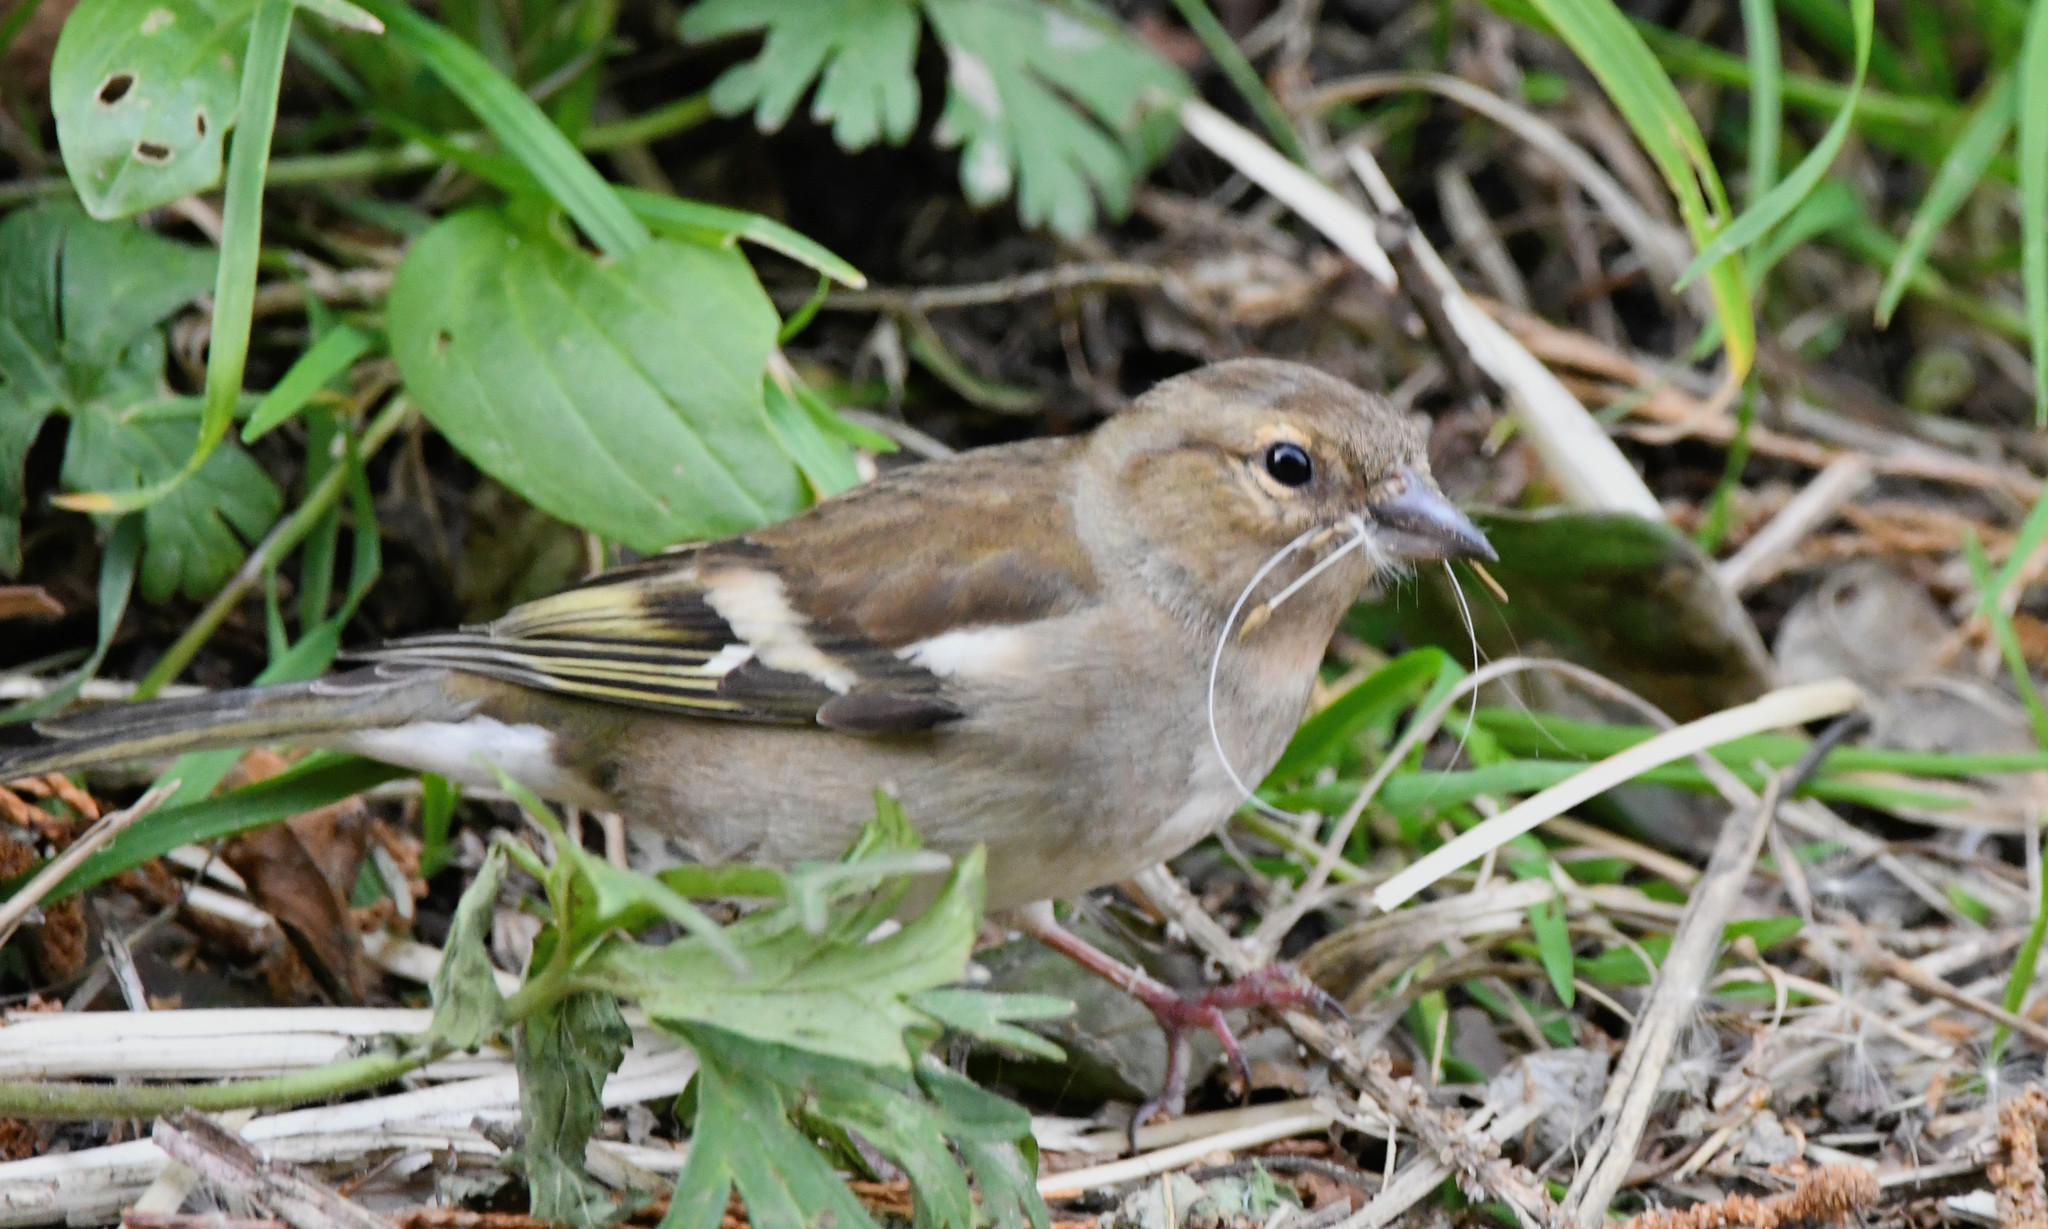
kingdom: Animalia
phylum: Chordata
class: Aves
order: Passeriformes
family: Fringillidae
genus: Fringilla
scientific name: Fringilla coelebs
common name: Common chaffinch
